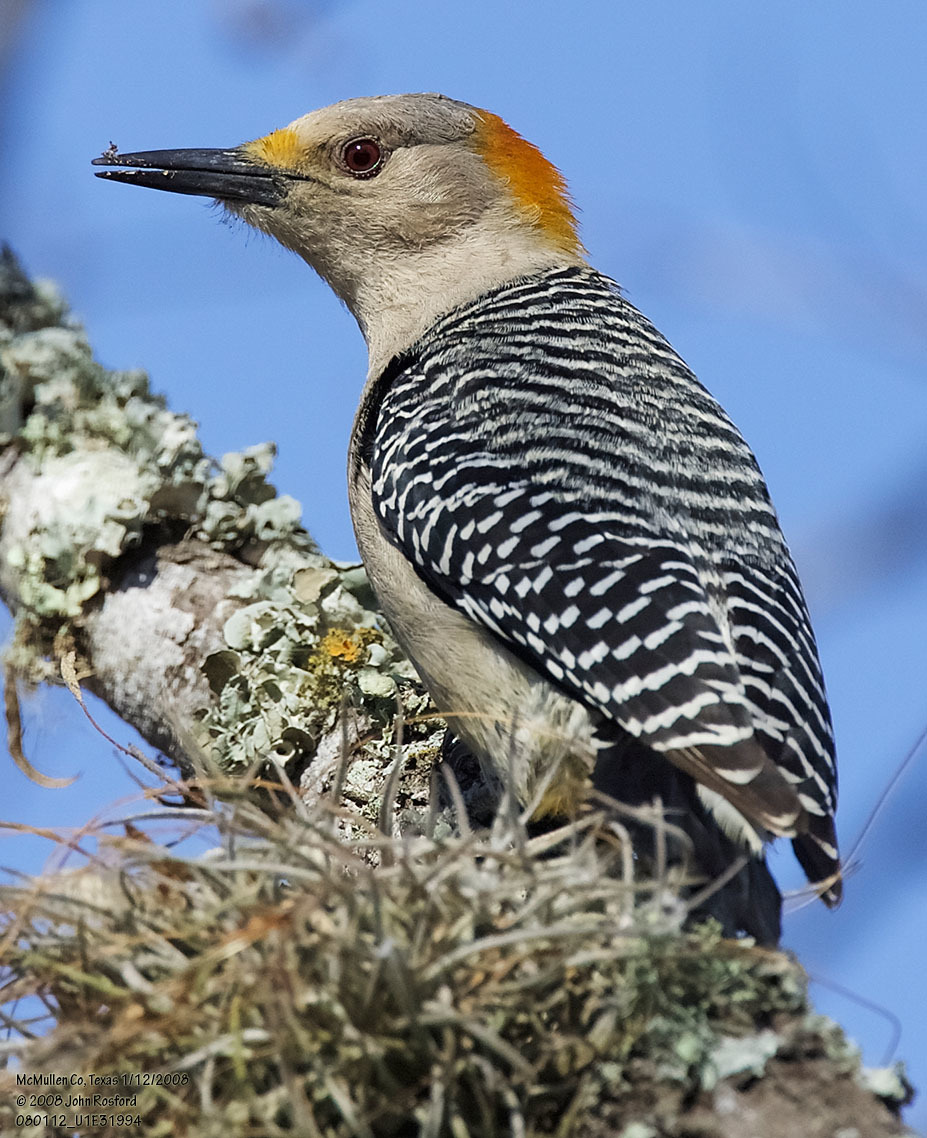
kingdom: Animalia
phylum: Chordata
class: Aves
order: Piciformes
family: Picidae
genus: Melanerpes
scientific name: Melanerpes aurifrons
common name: Golden-fronted woodpecker
